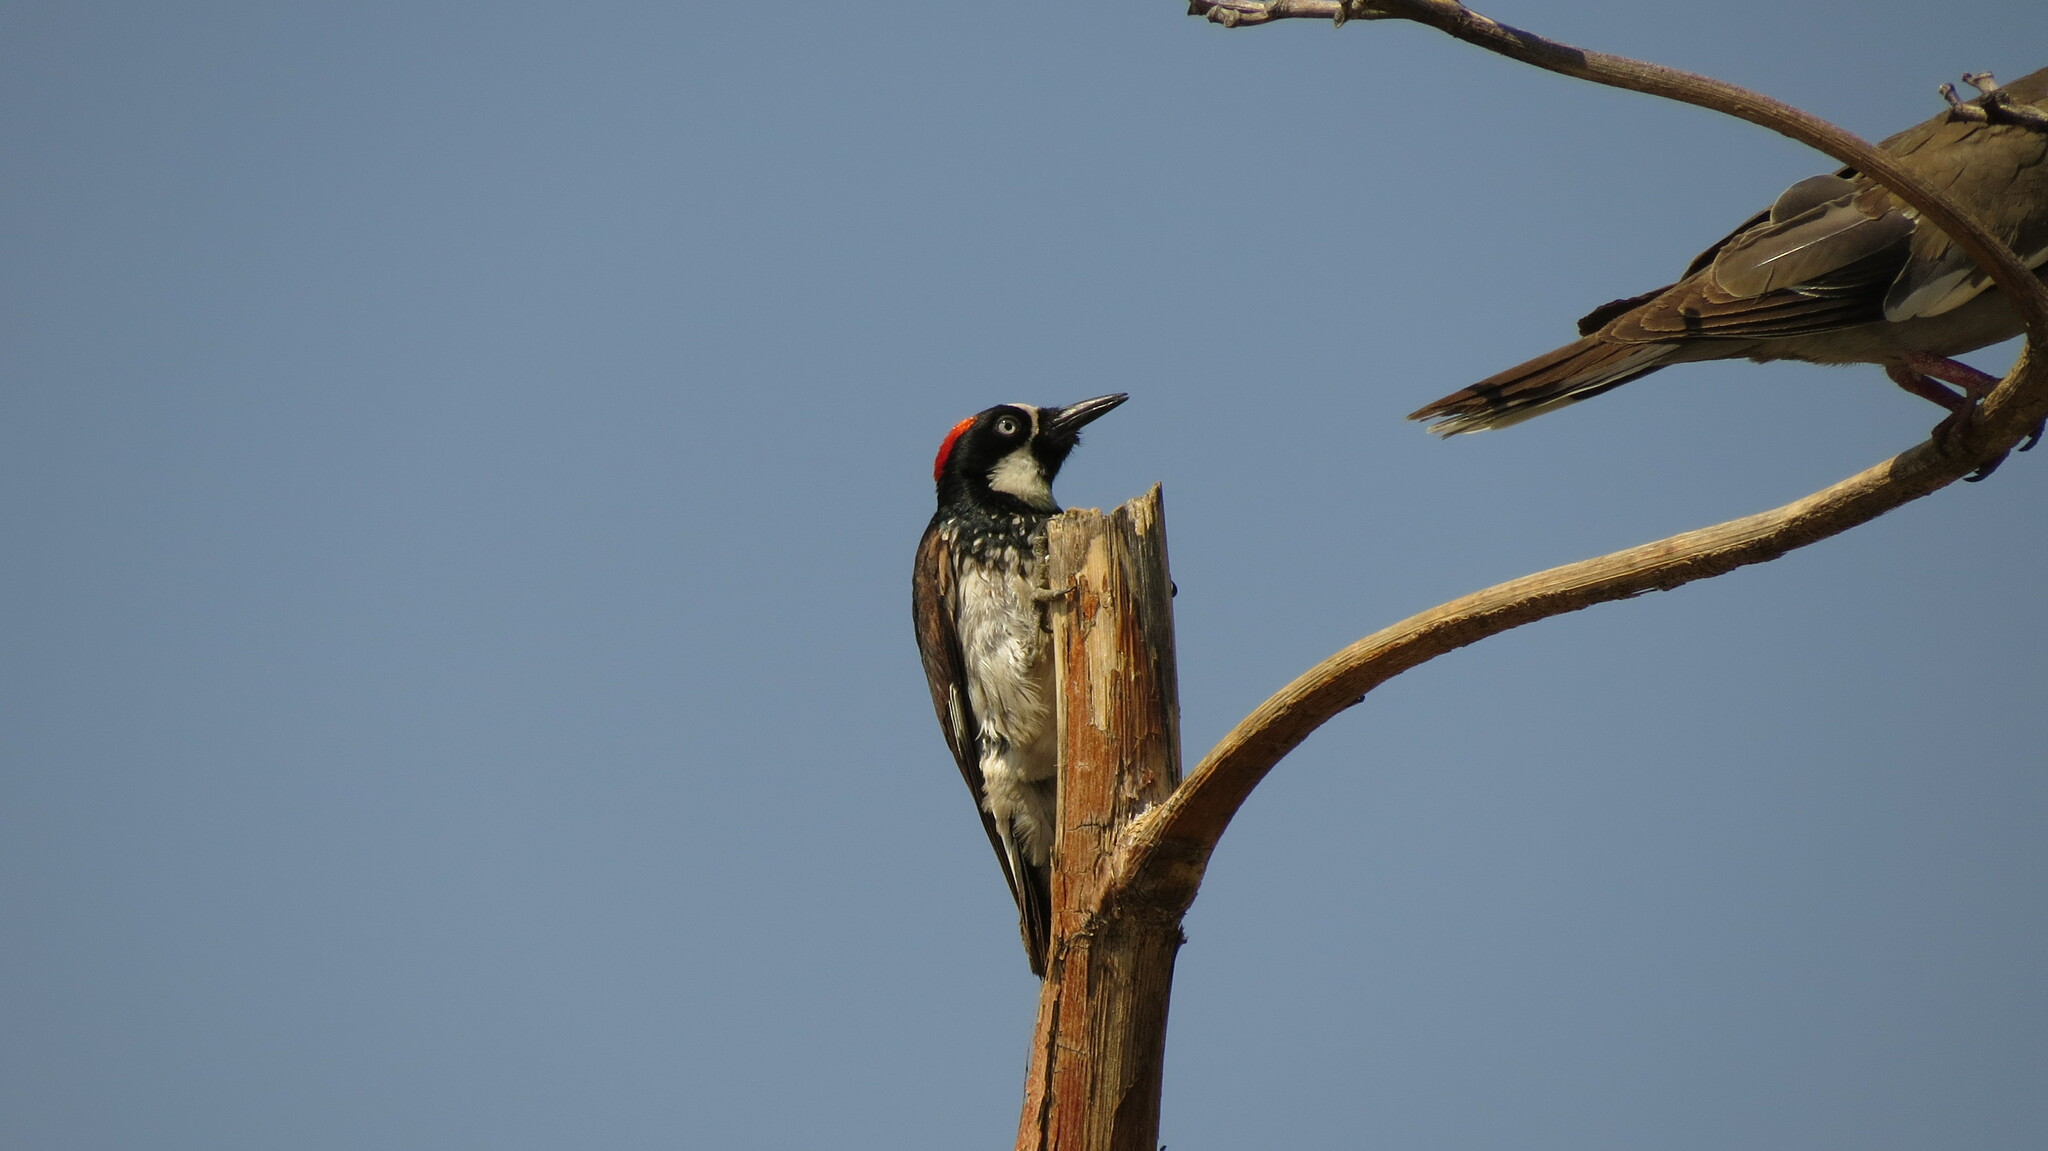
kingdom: Animalia
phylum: Chordata
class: Aves
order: Piciformes
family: Picidae
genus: Melanerpes
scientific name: Melanerpes formicivorus
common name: Acorn woodpecker
